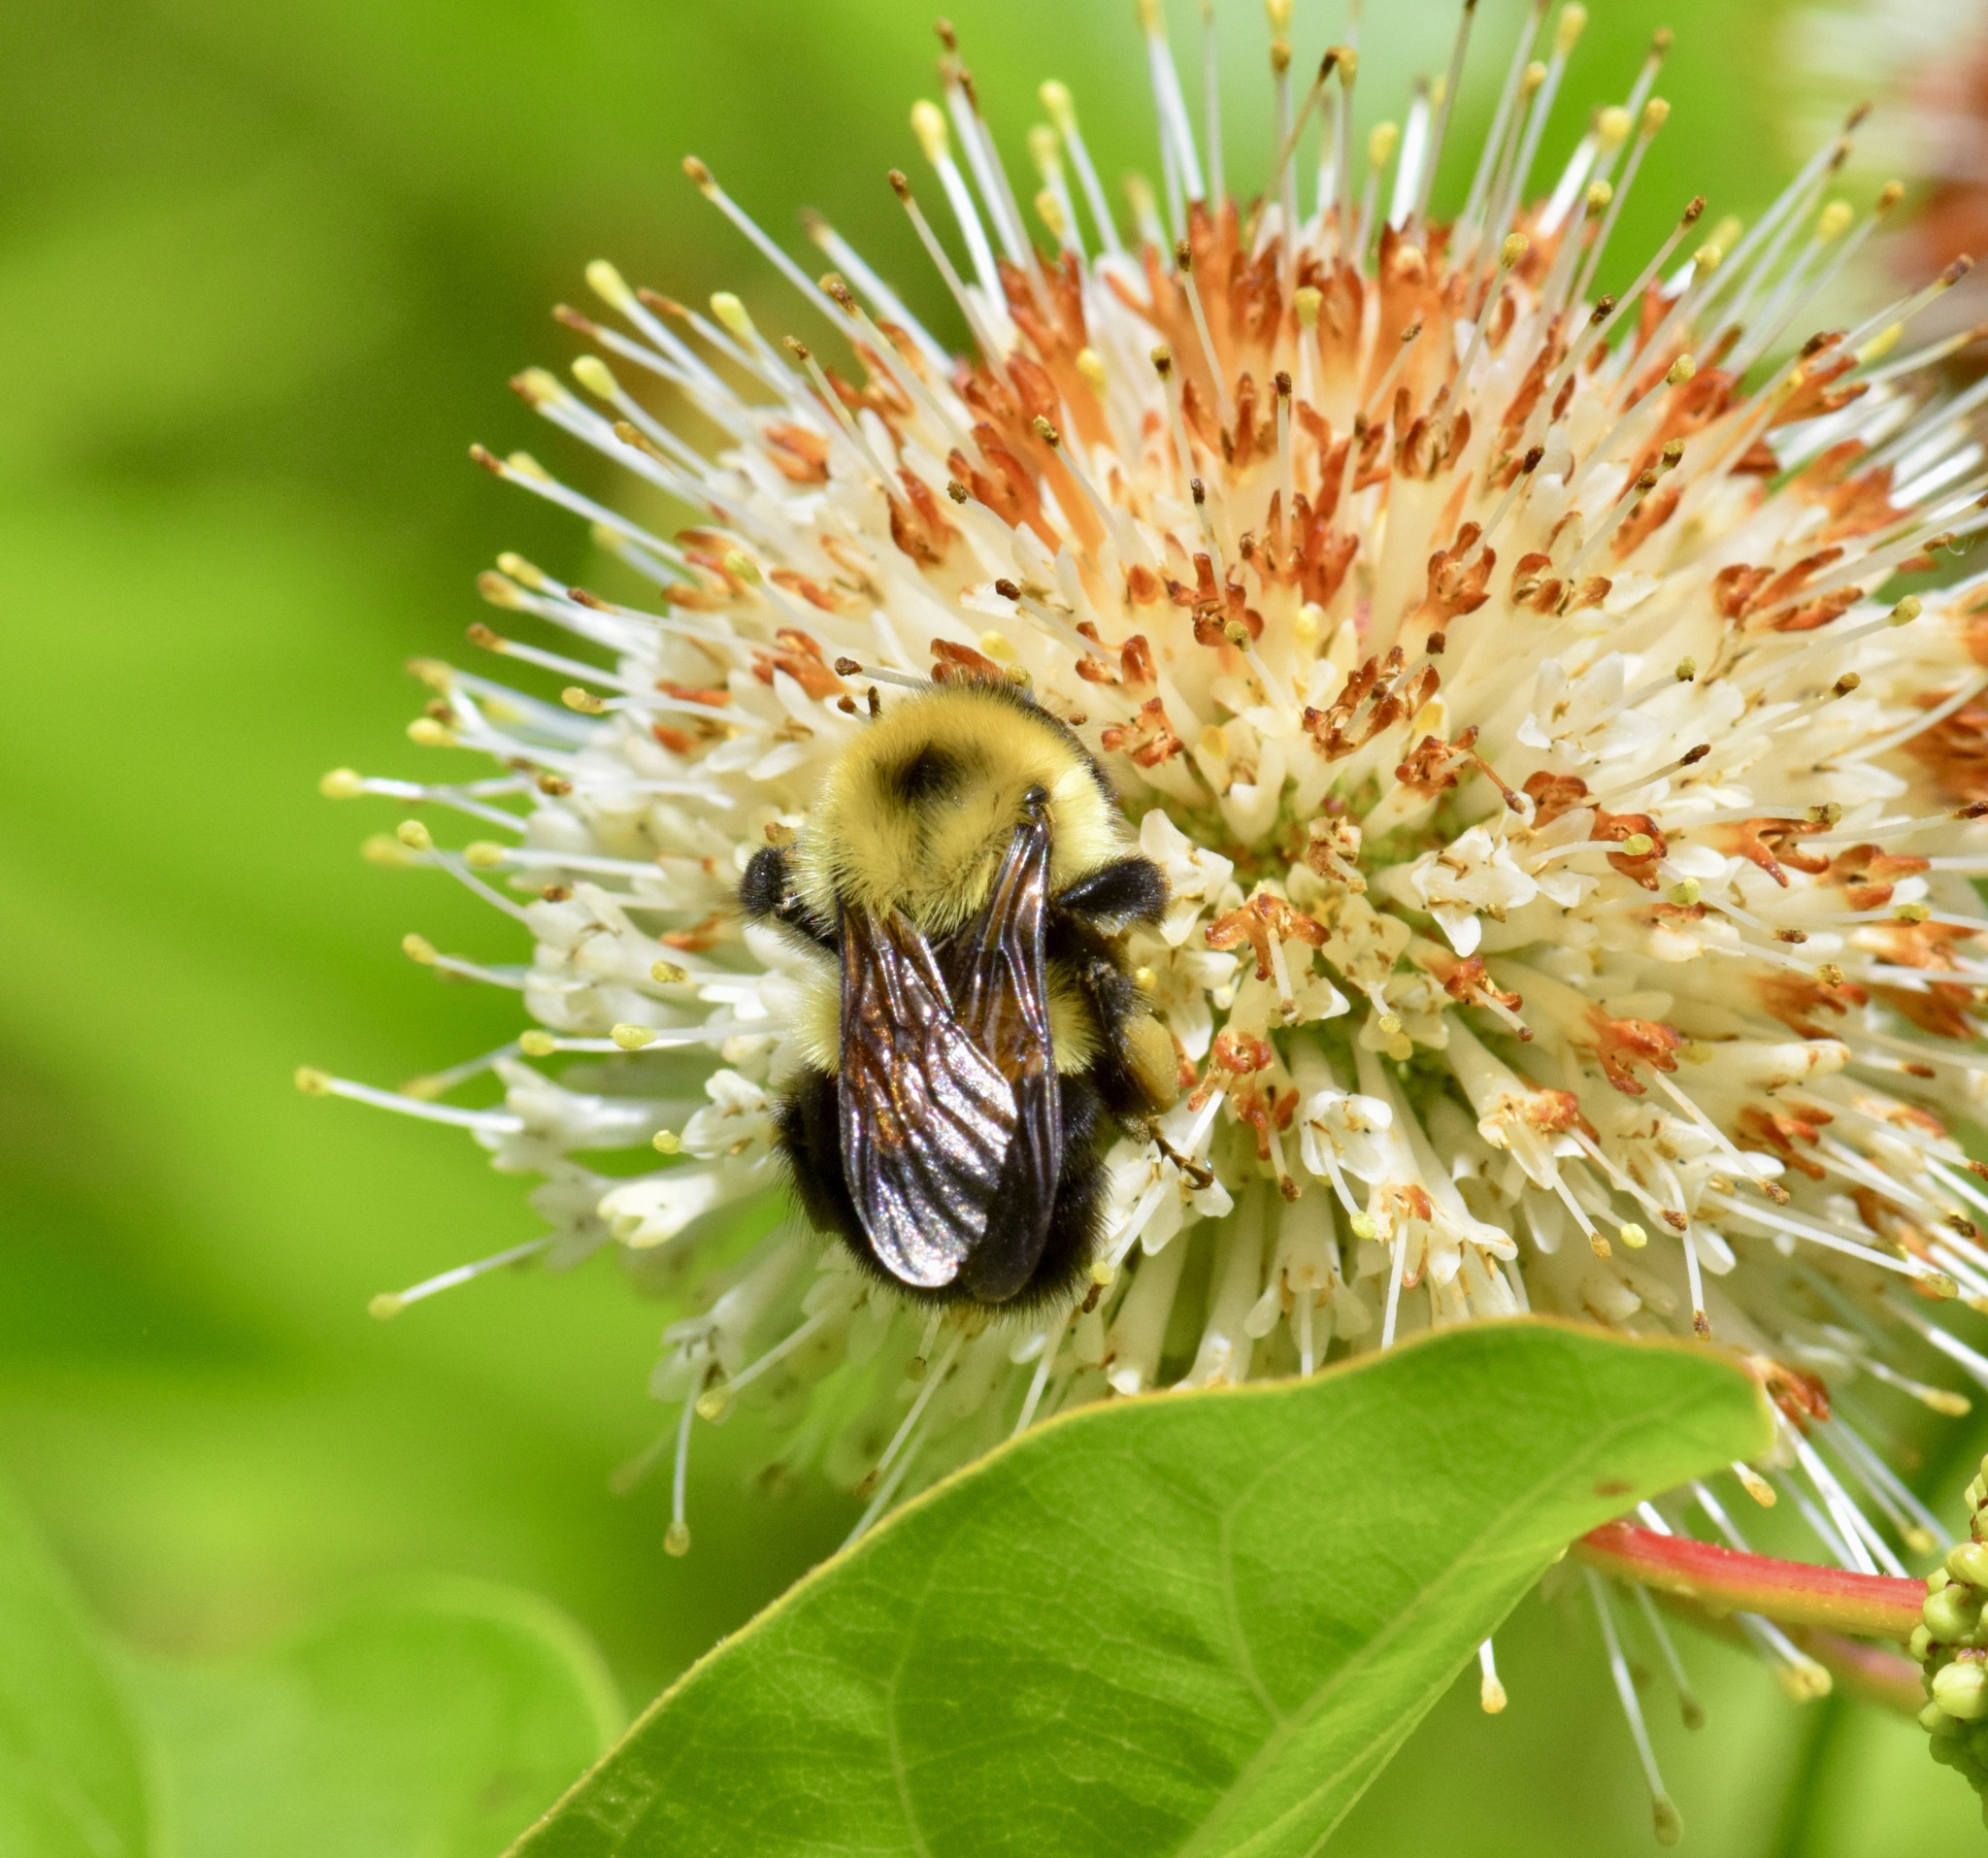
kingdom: Animalia
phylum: Arthropoda
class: Insecta
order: Hymenoptera
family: Apidae
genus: Bombus
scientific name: Bombus bimaculatus
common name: Two-spotted bumble bee
